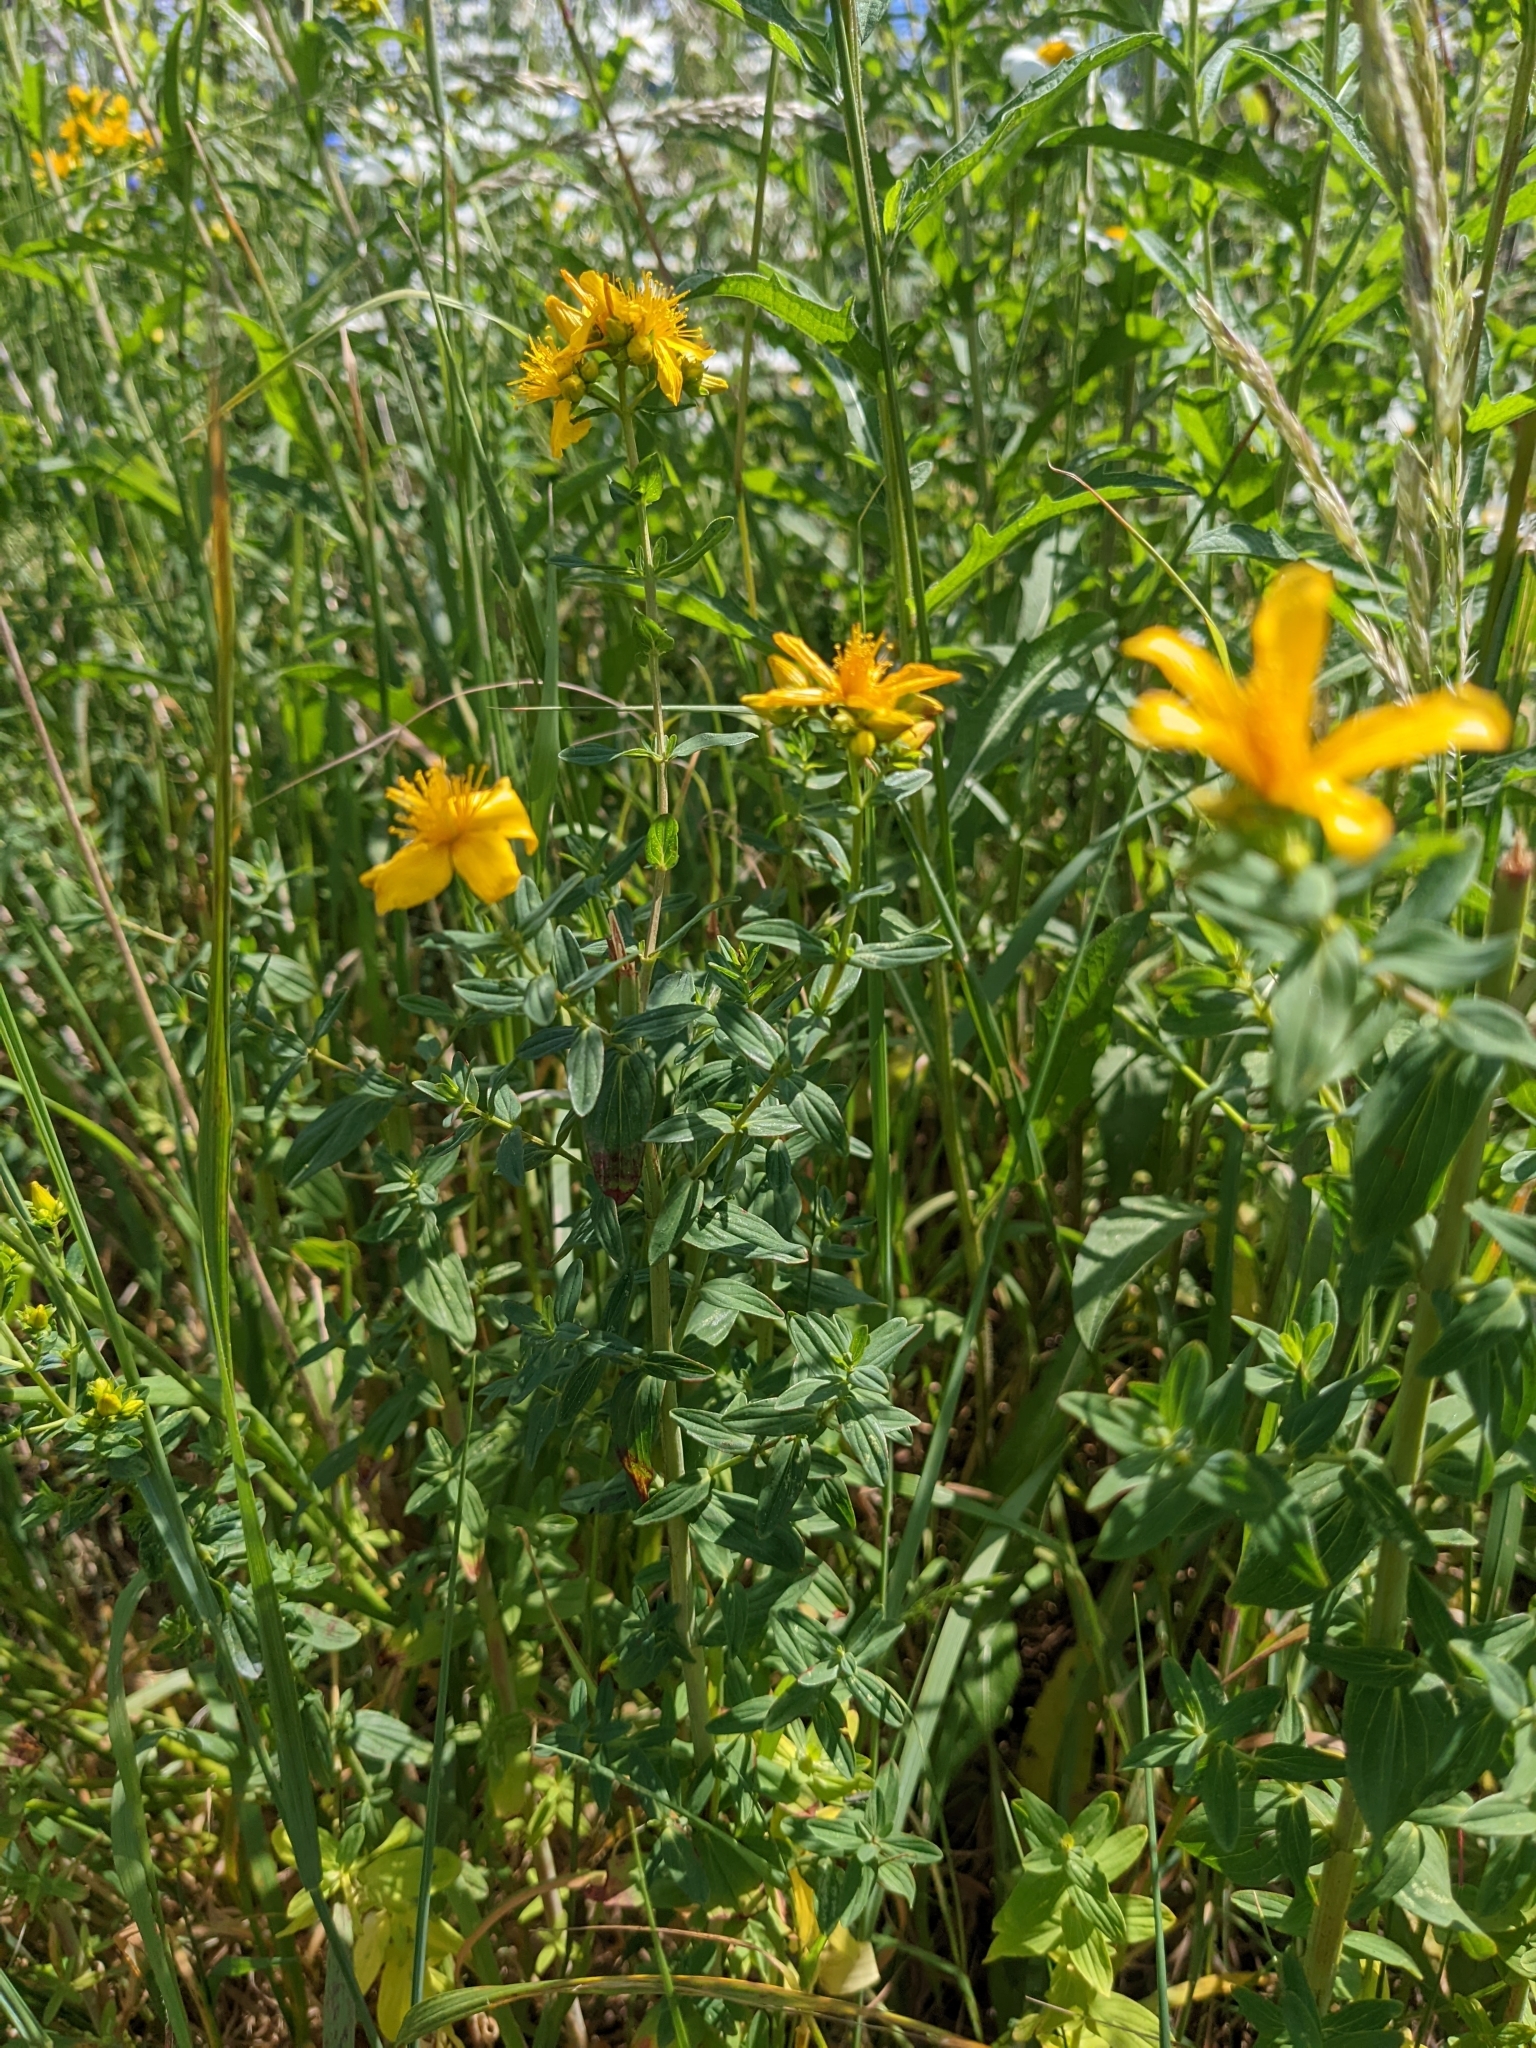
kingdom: Plantae
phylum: Tracheophyta
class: Magnoliopsida
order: Malpighiales
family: Hypericaceae
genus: Hypericum
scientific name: Hypericum perforatum
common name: Common st. johnswort
